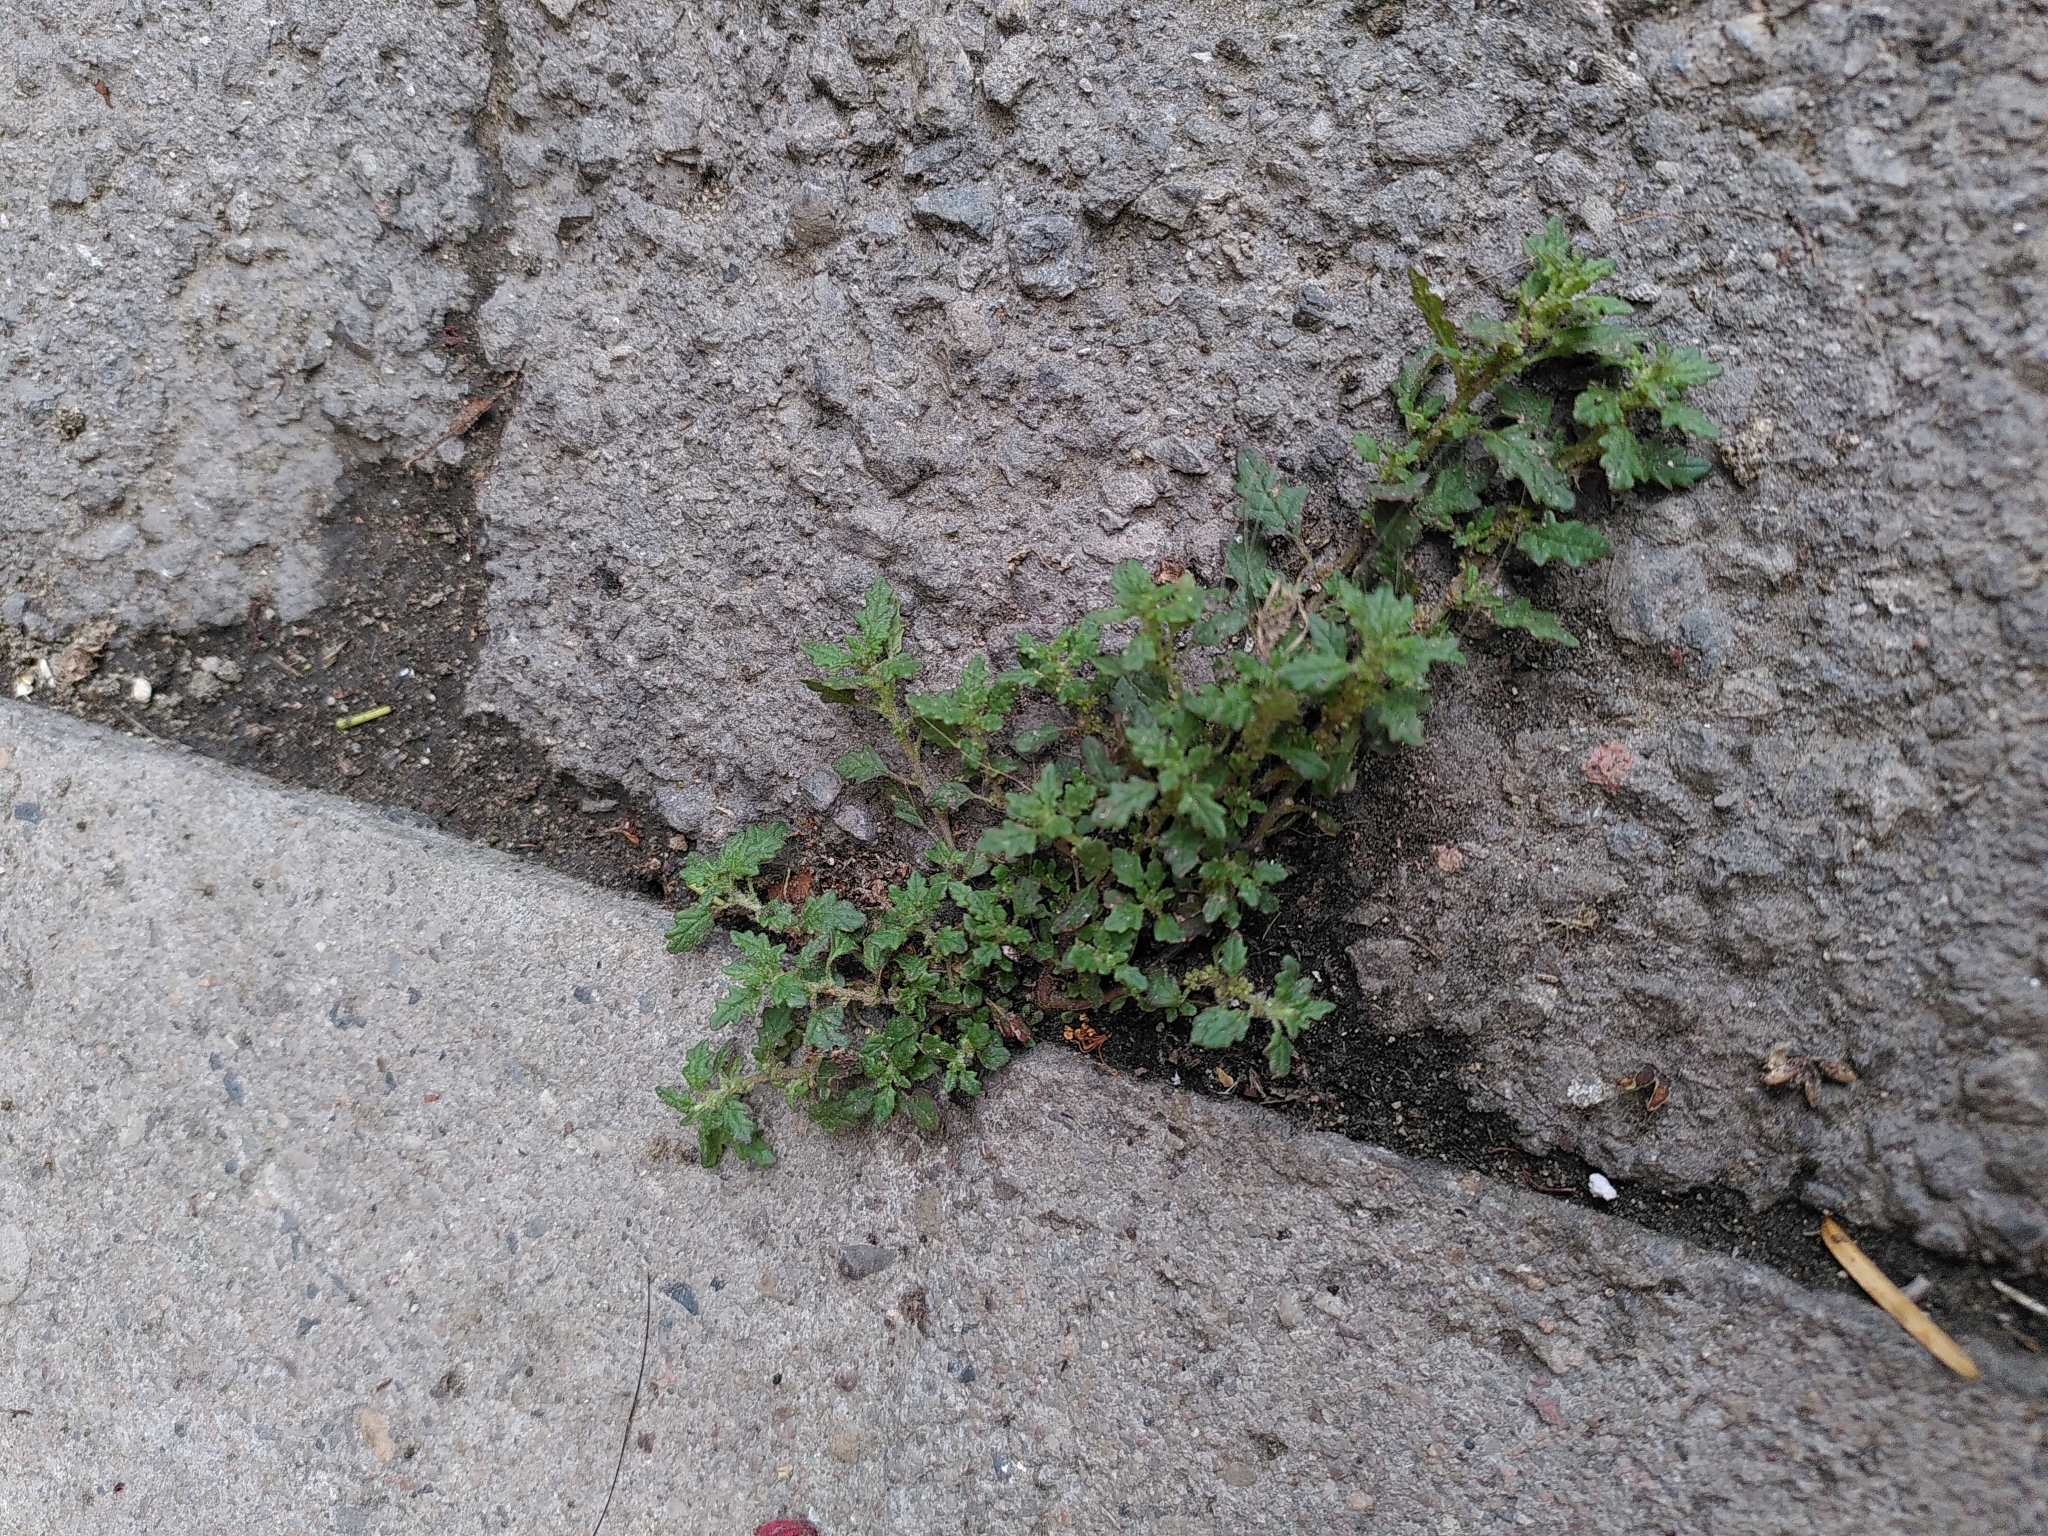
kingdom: Plantae
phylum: Tracheophyta
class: Magnoliopsida
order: Caryophyllales
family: Amaranthaceae
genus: Dysphania
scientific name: Dysphania pumilio
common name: Clammy goosefoot
